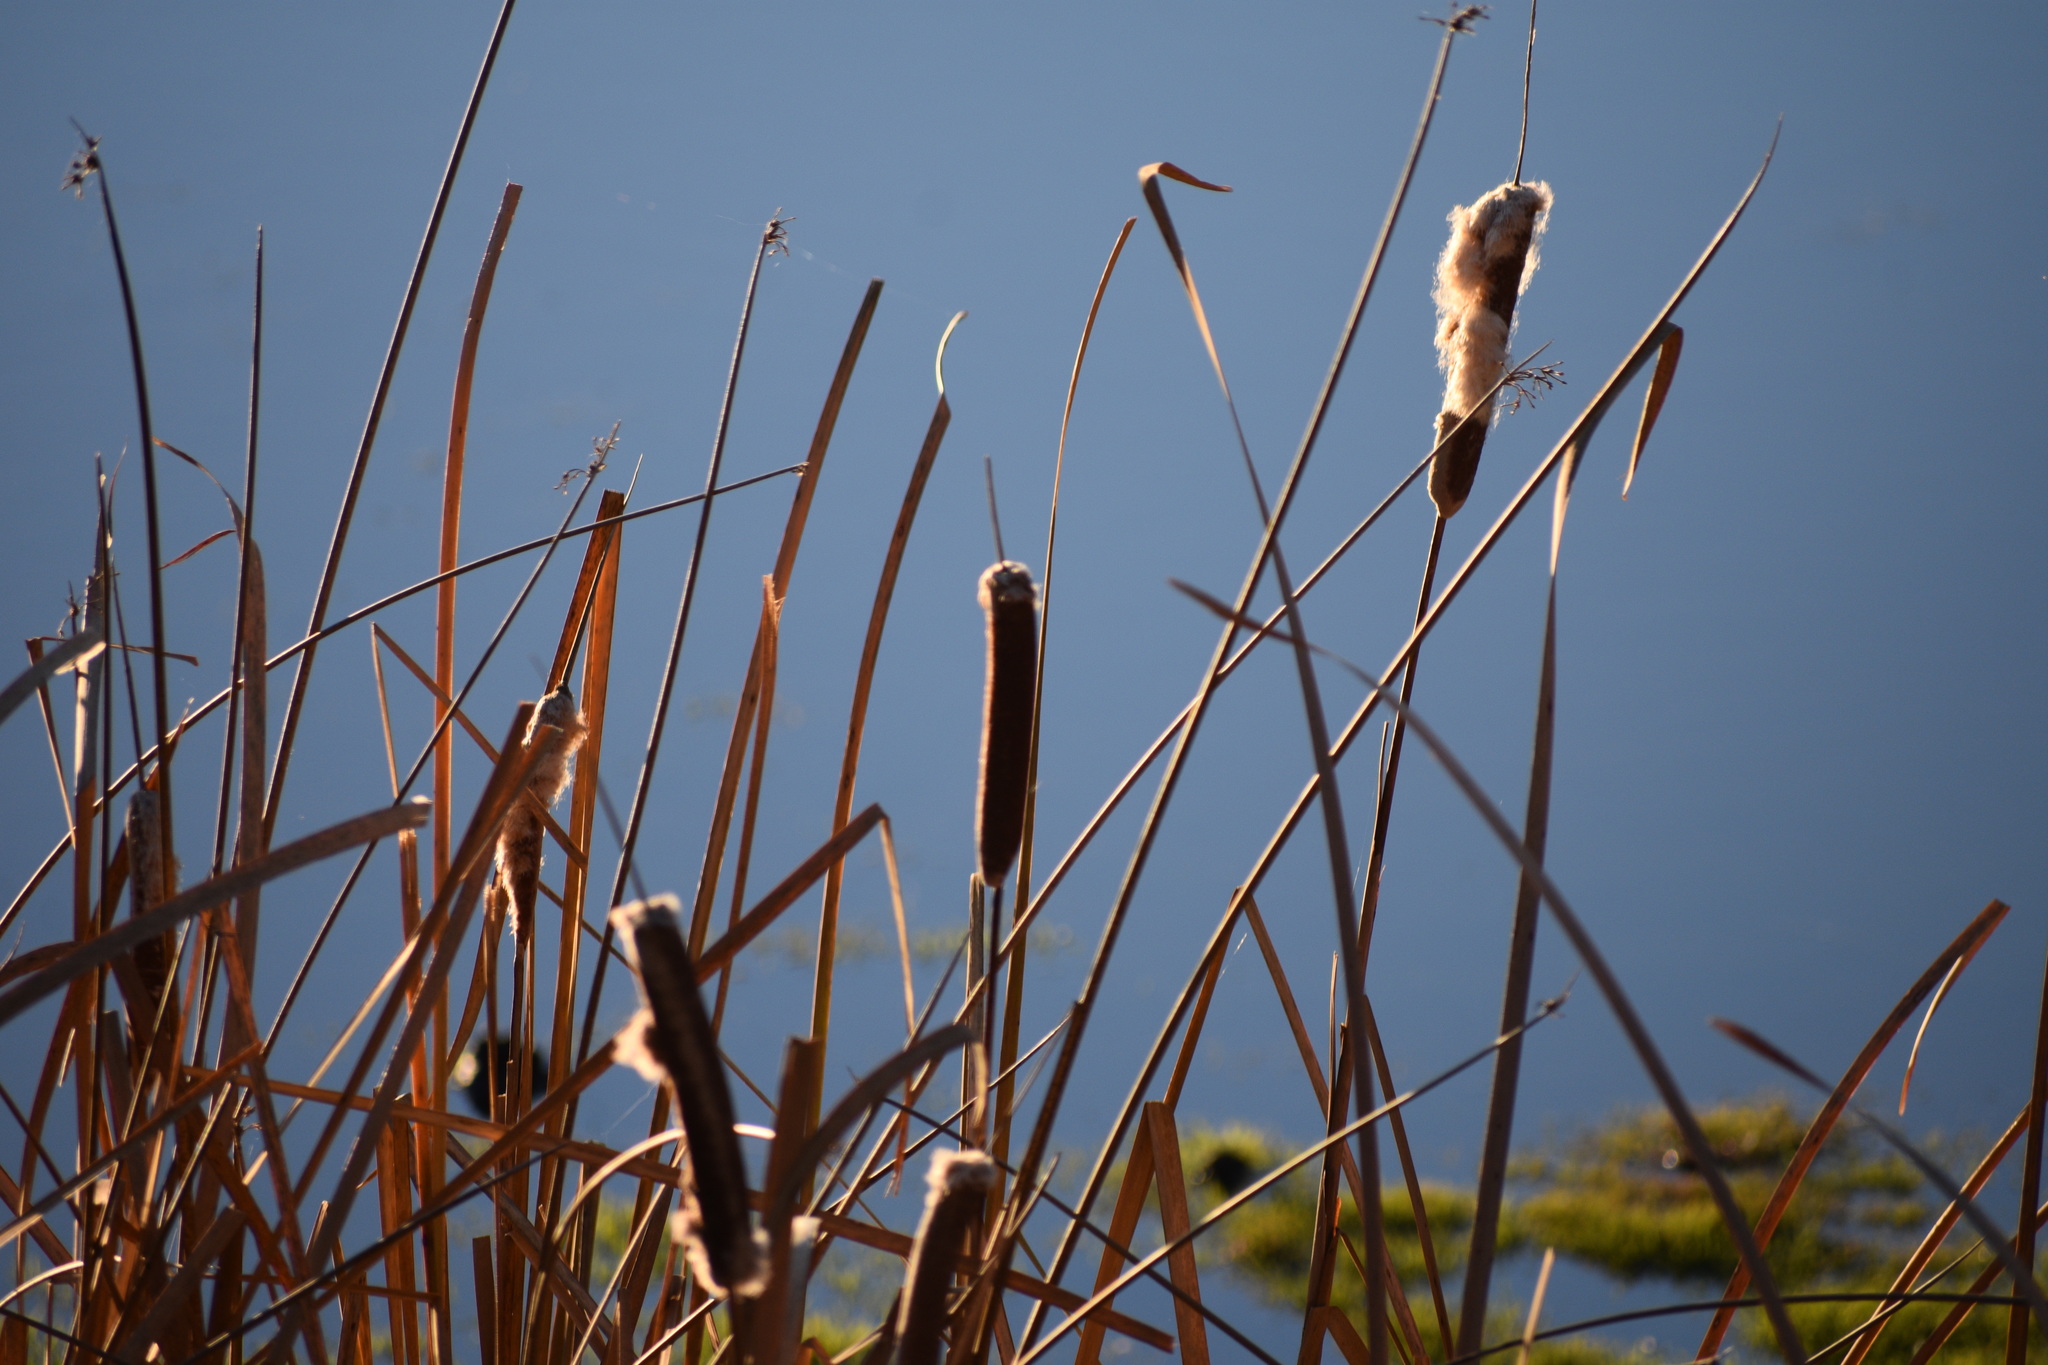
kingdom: Plantae
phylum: Tracheophyta
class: Liliopsida
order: Poales
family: Typhaceae
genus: Typha
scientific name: Typha latifolia
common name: Broadleaf cattail
